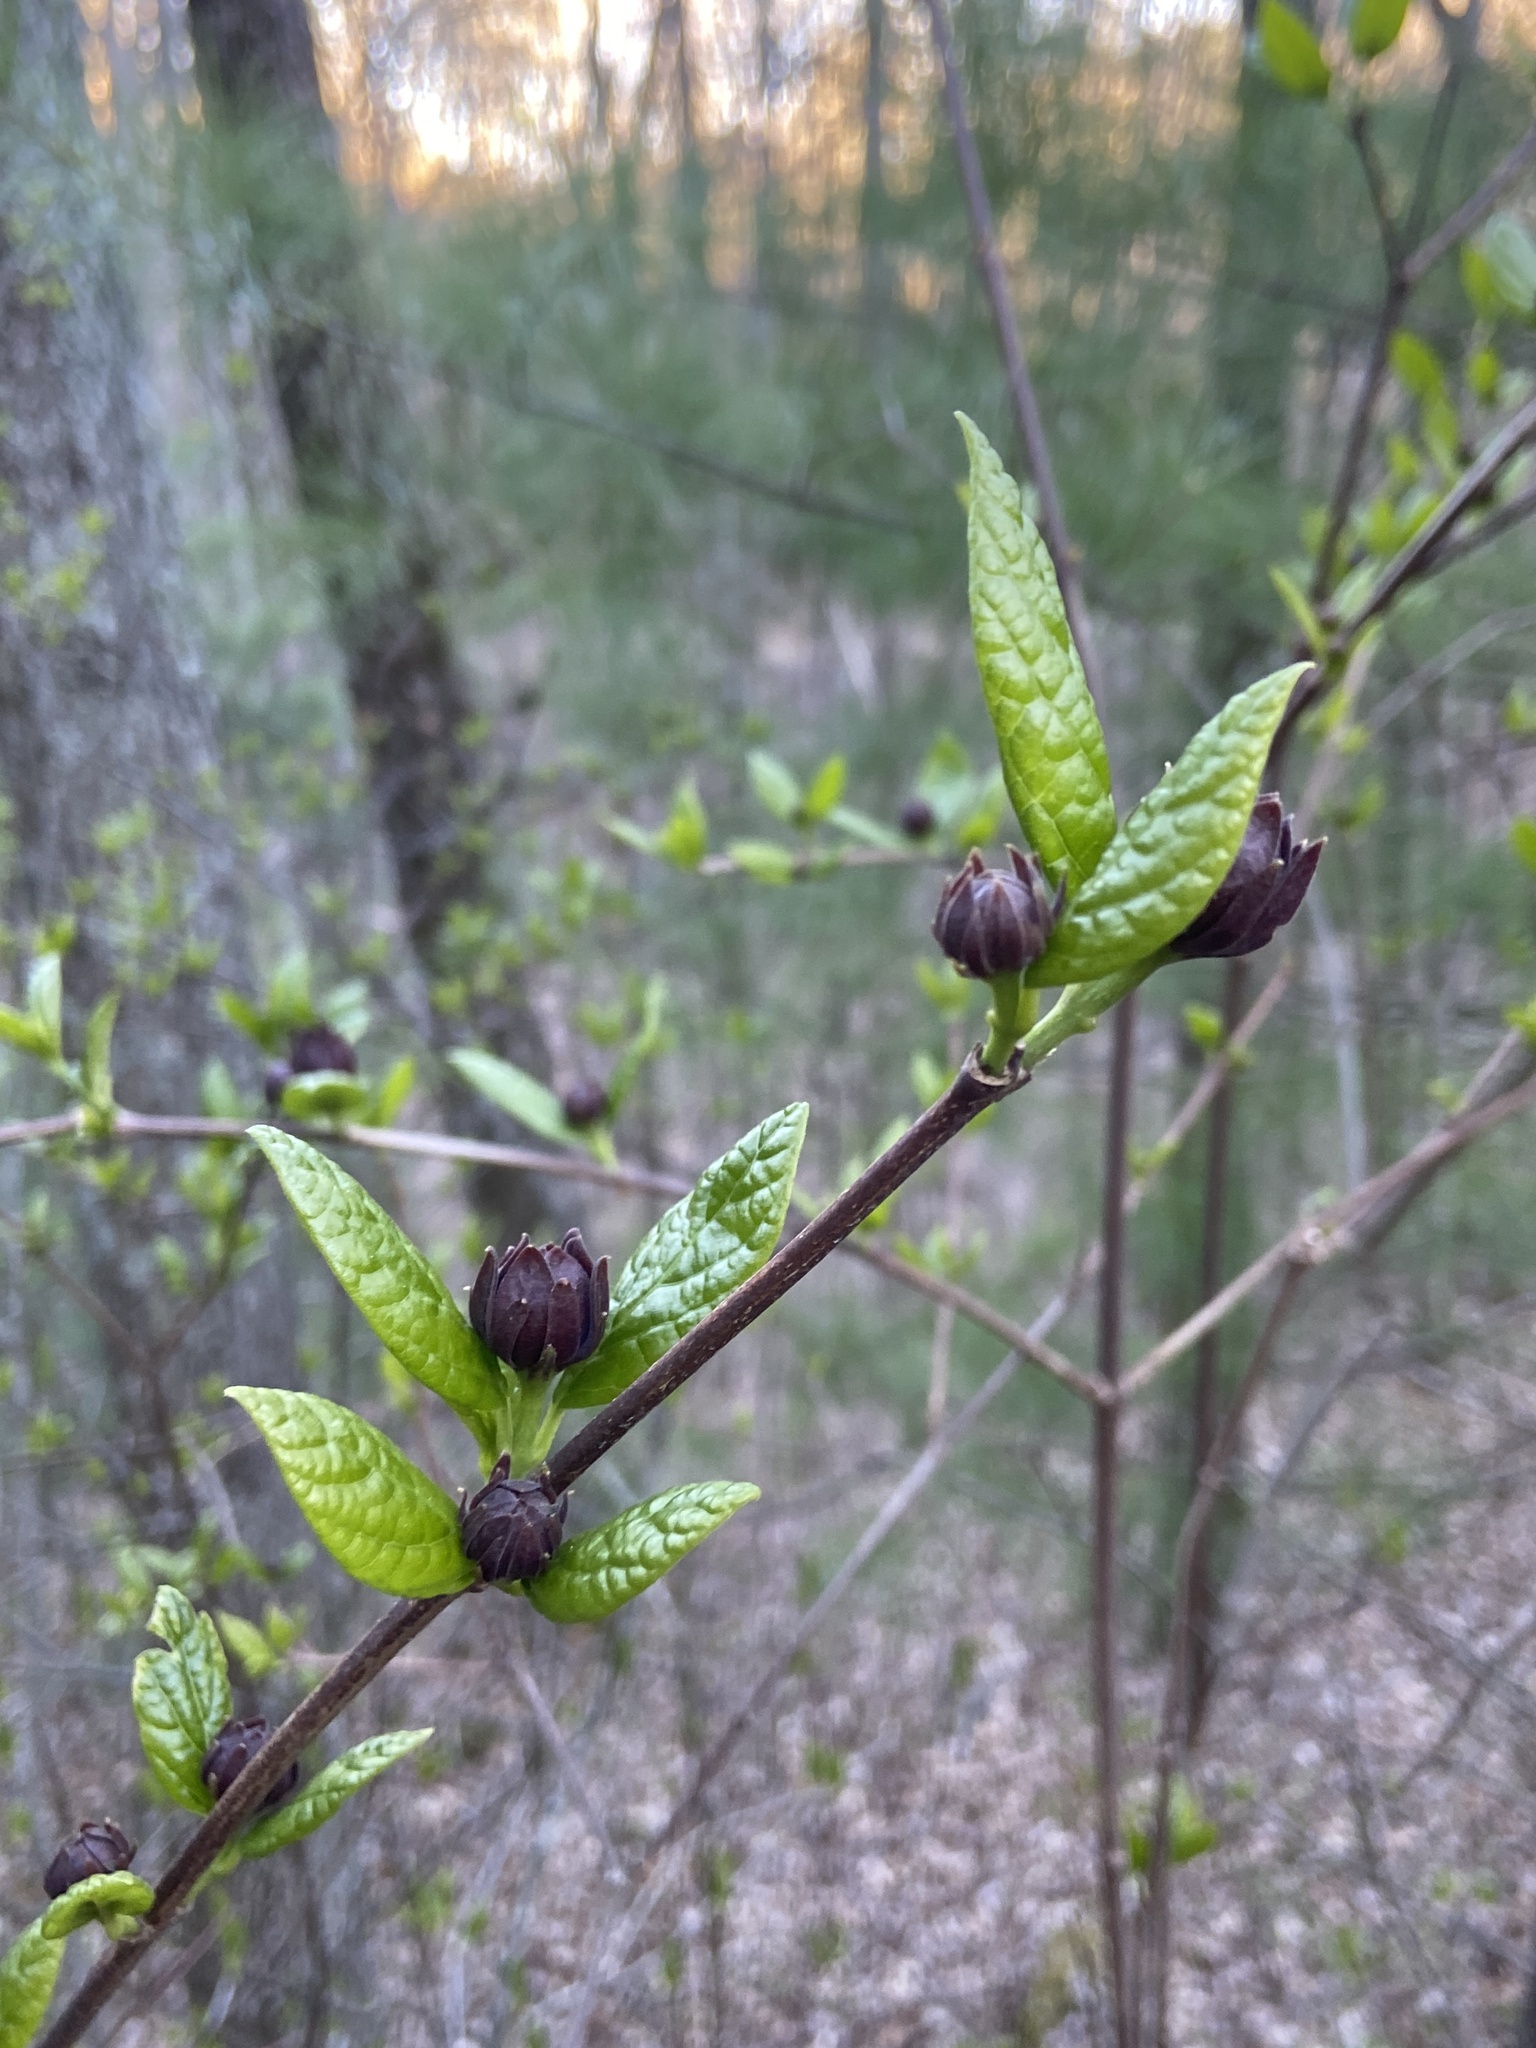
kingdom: Plantae
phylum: Tracheophyta
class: Magnoliopsida
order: Laurales
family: Calycanthaceae
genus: Calycanthus
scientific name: Calycanthus floridus
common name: Carolina-allspice
